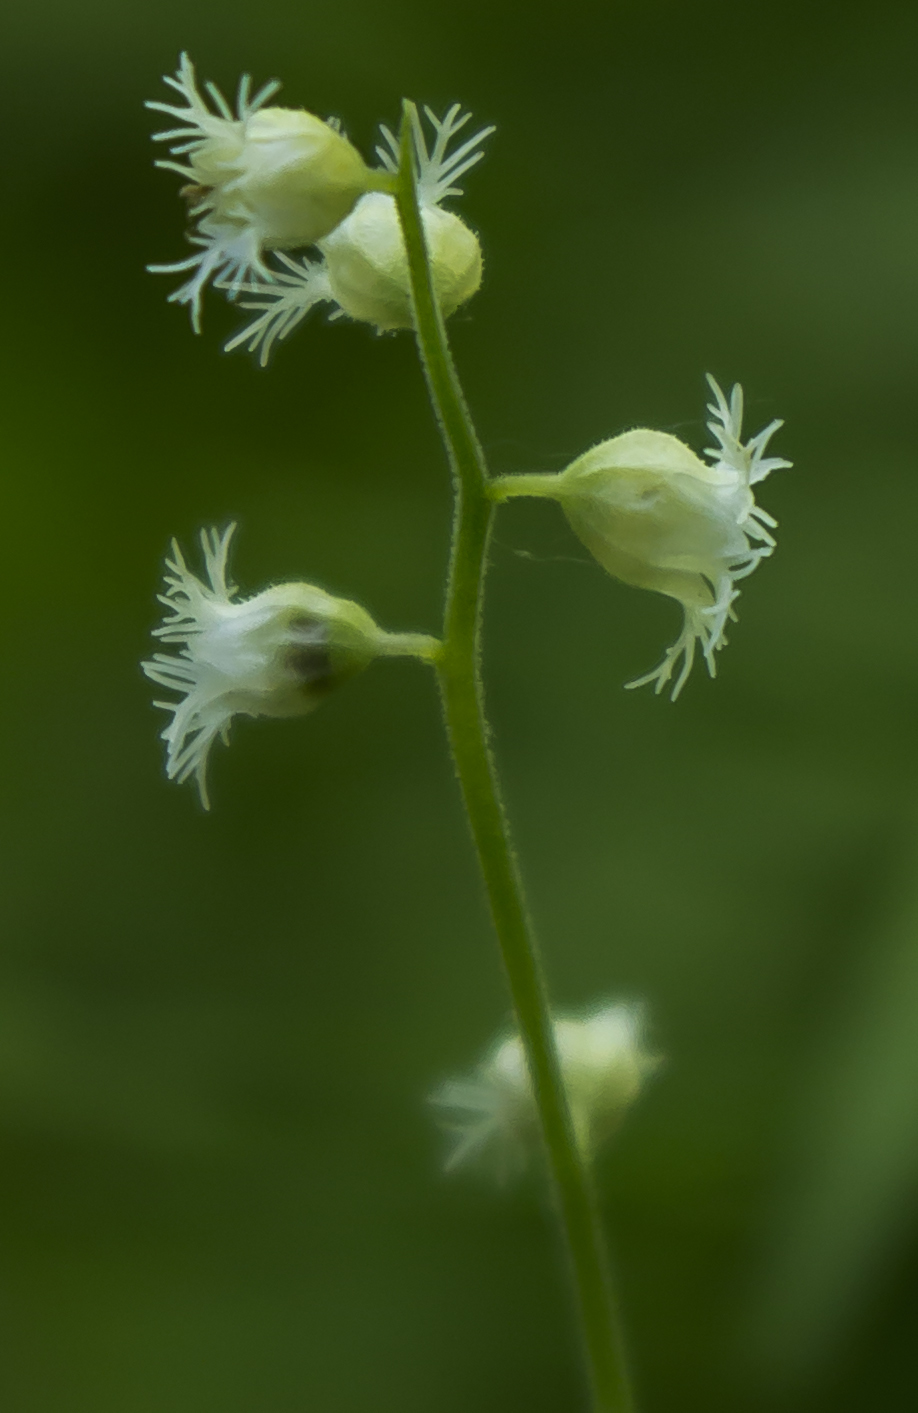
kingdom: Plantae
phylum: Tracheophyta
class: Magnoliopsida
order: Saxifragales
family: Saxifragaceae
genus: Mitella
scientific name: Mitella diphylla
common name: Coolwort
